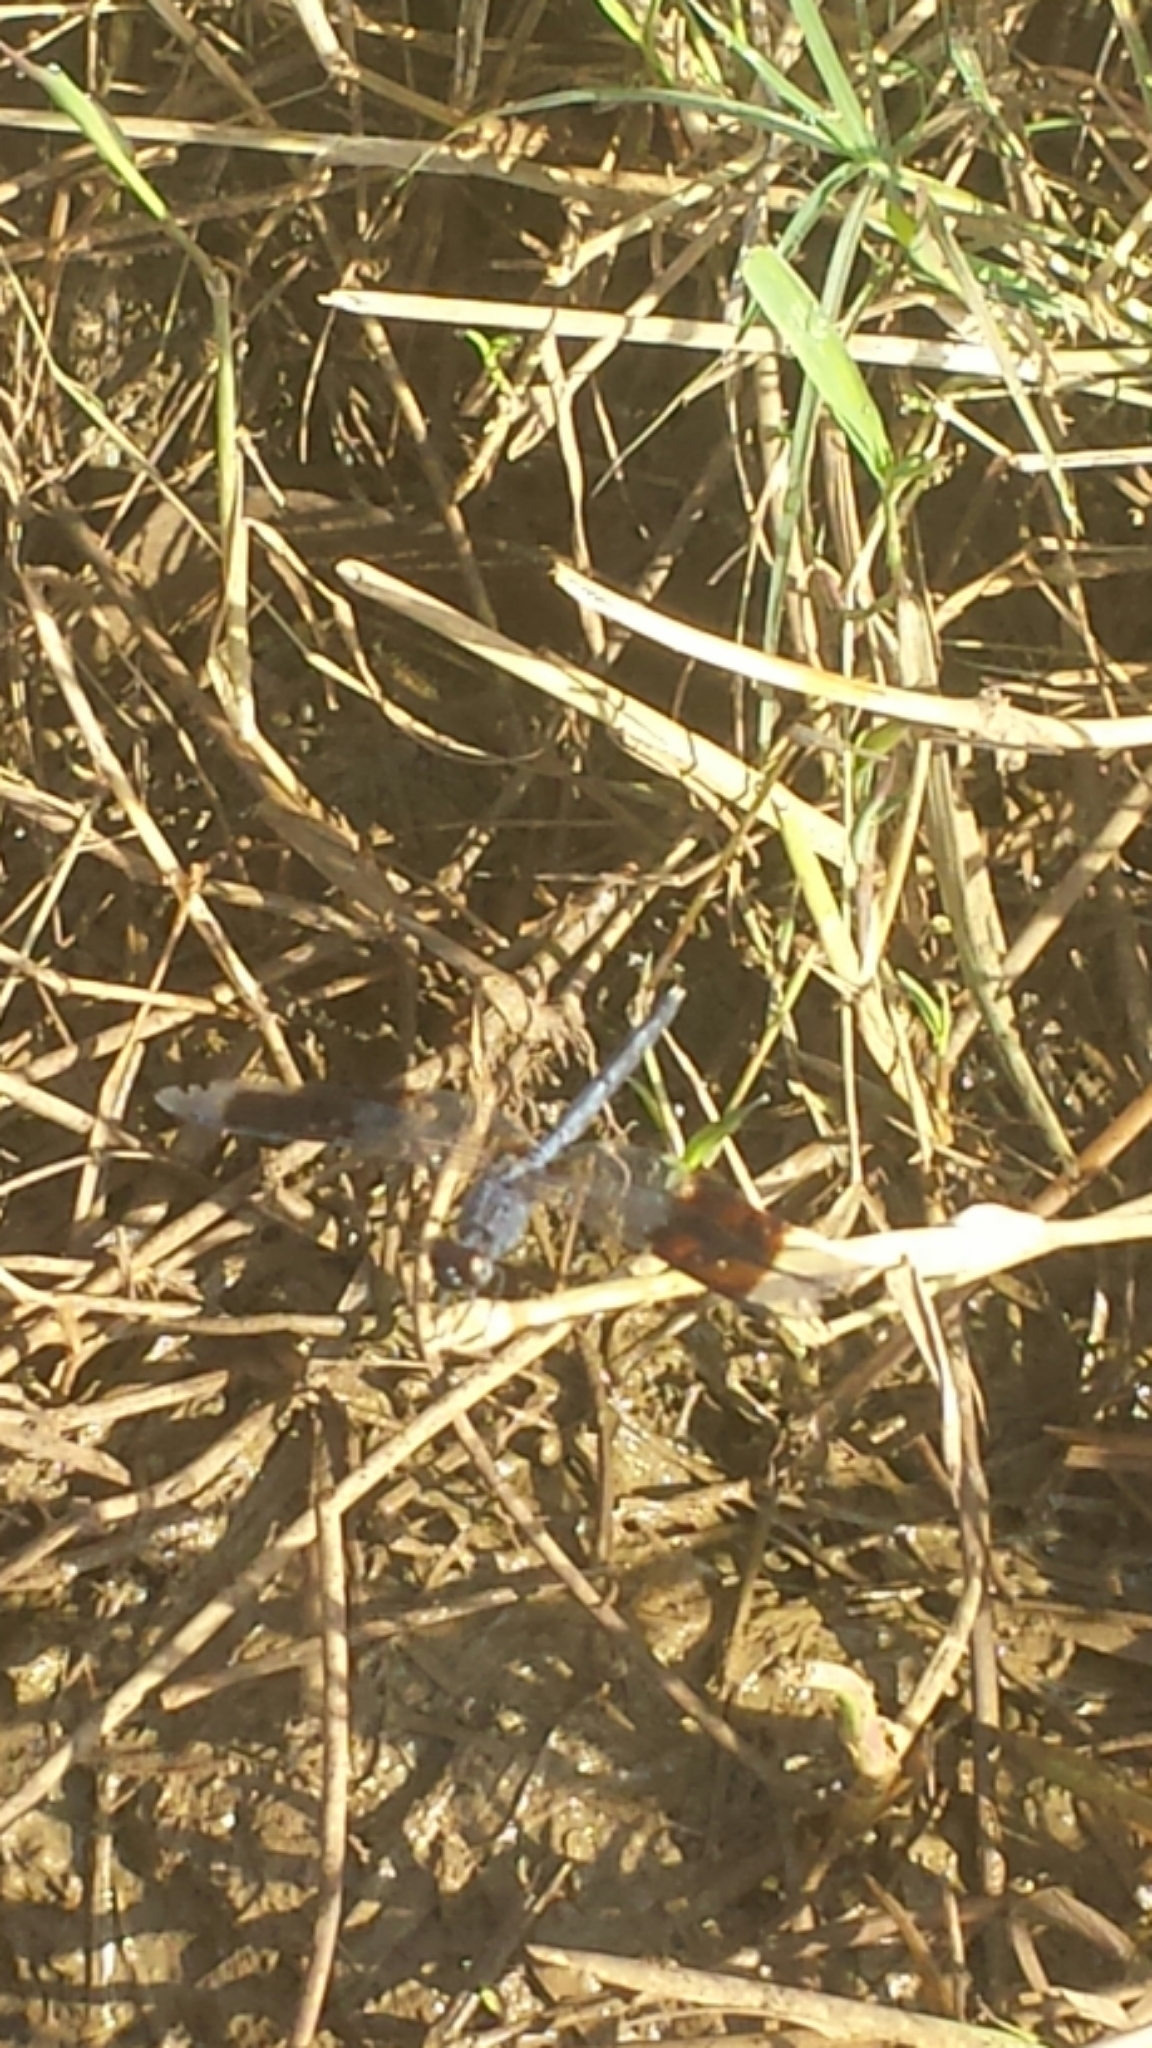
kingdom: Animalia
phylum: Arthropoda
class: Insecta
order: Odonata
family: Libellulidae
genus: Erythrodiplax
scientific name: Erythrodiplax umbrata
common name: Band-winged dragonlet
